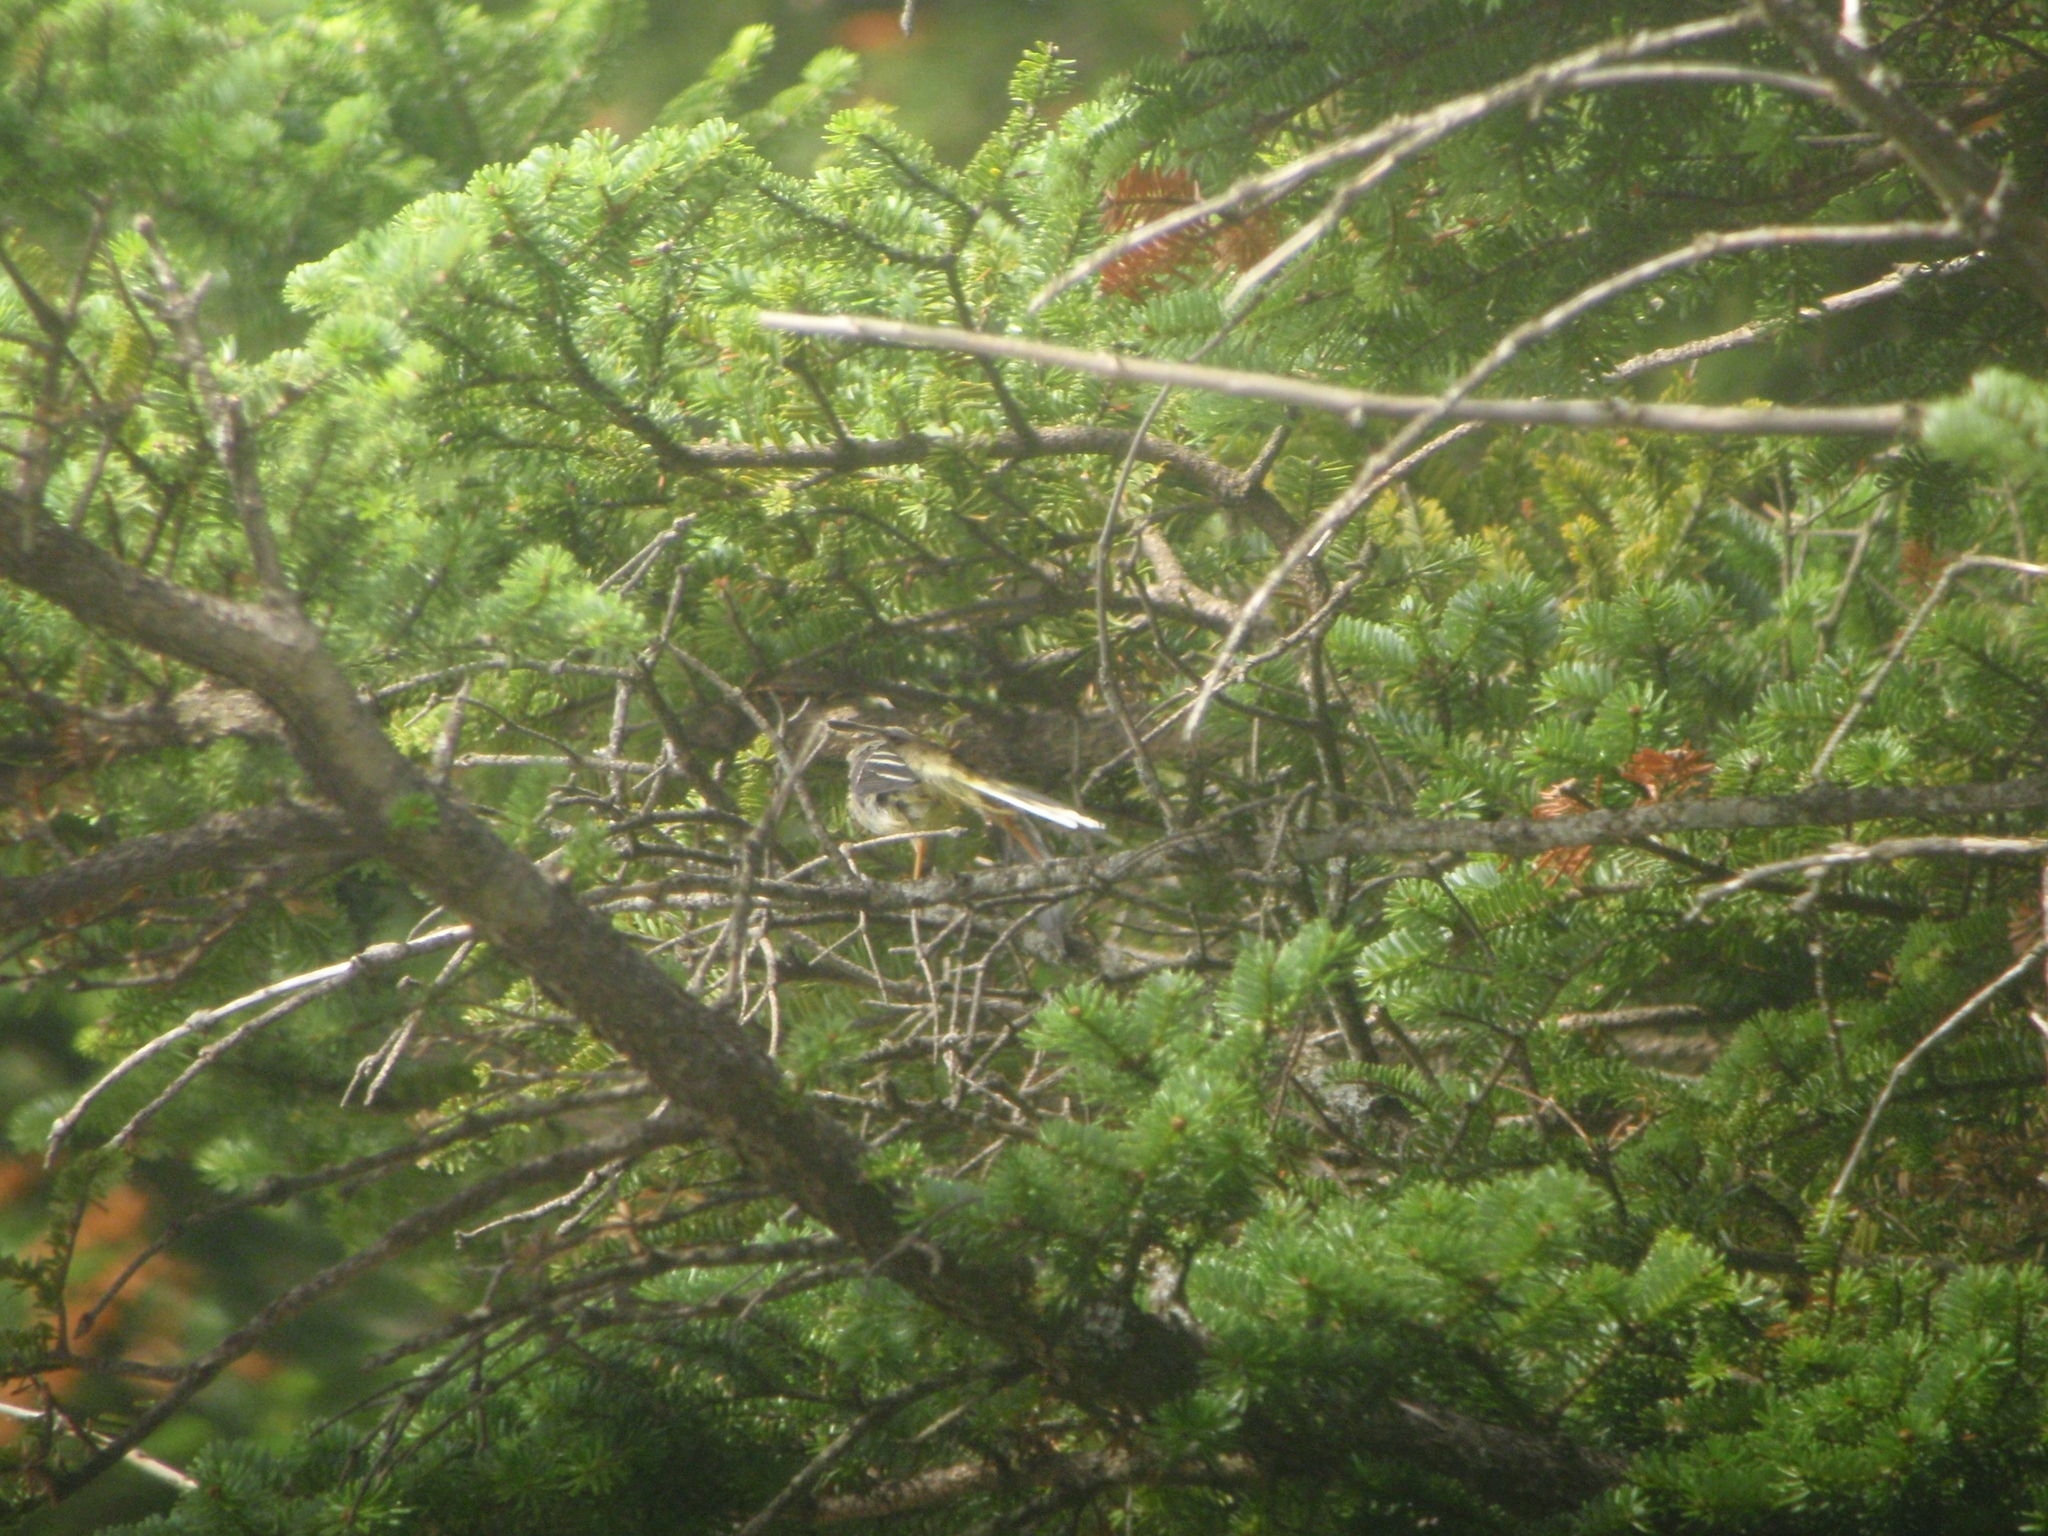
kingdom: Animalia
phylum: Chordata
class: Aves
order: Passeriformes
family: Motacillidae
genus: Motacilla
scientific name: Motacilla cinerea
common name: Grey wagtail
